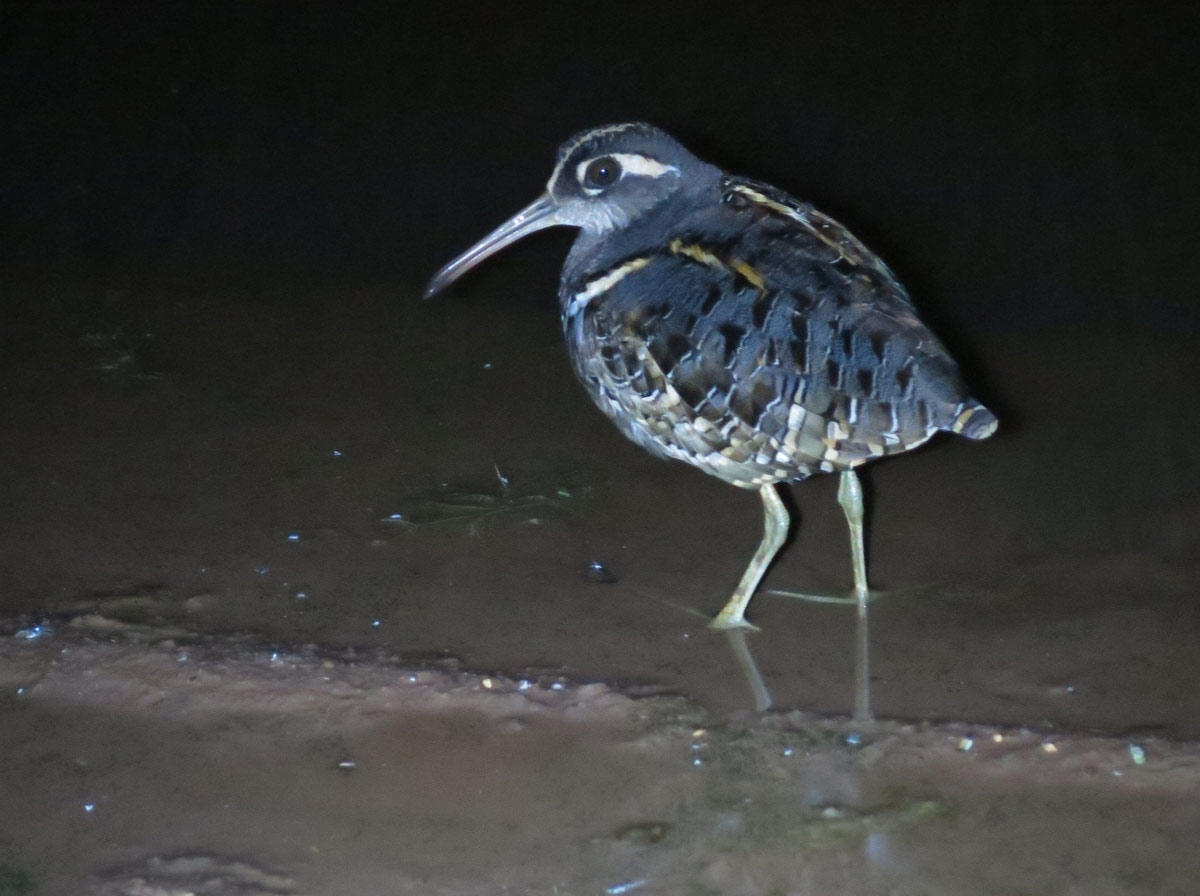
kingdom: Animalia
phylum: Chordata
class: Aves
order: Charadriiformes
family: Rostratulidae
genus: Rostratula
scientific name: Rostratula benghalensis
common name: Greater painted-snipe
